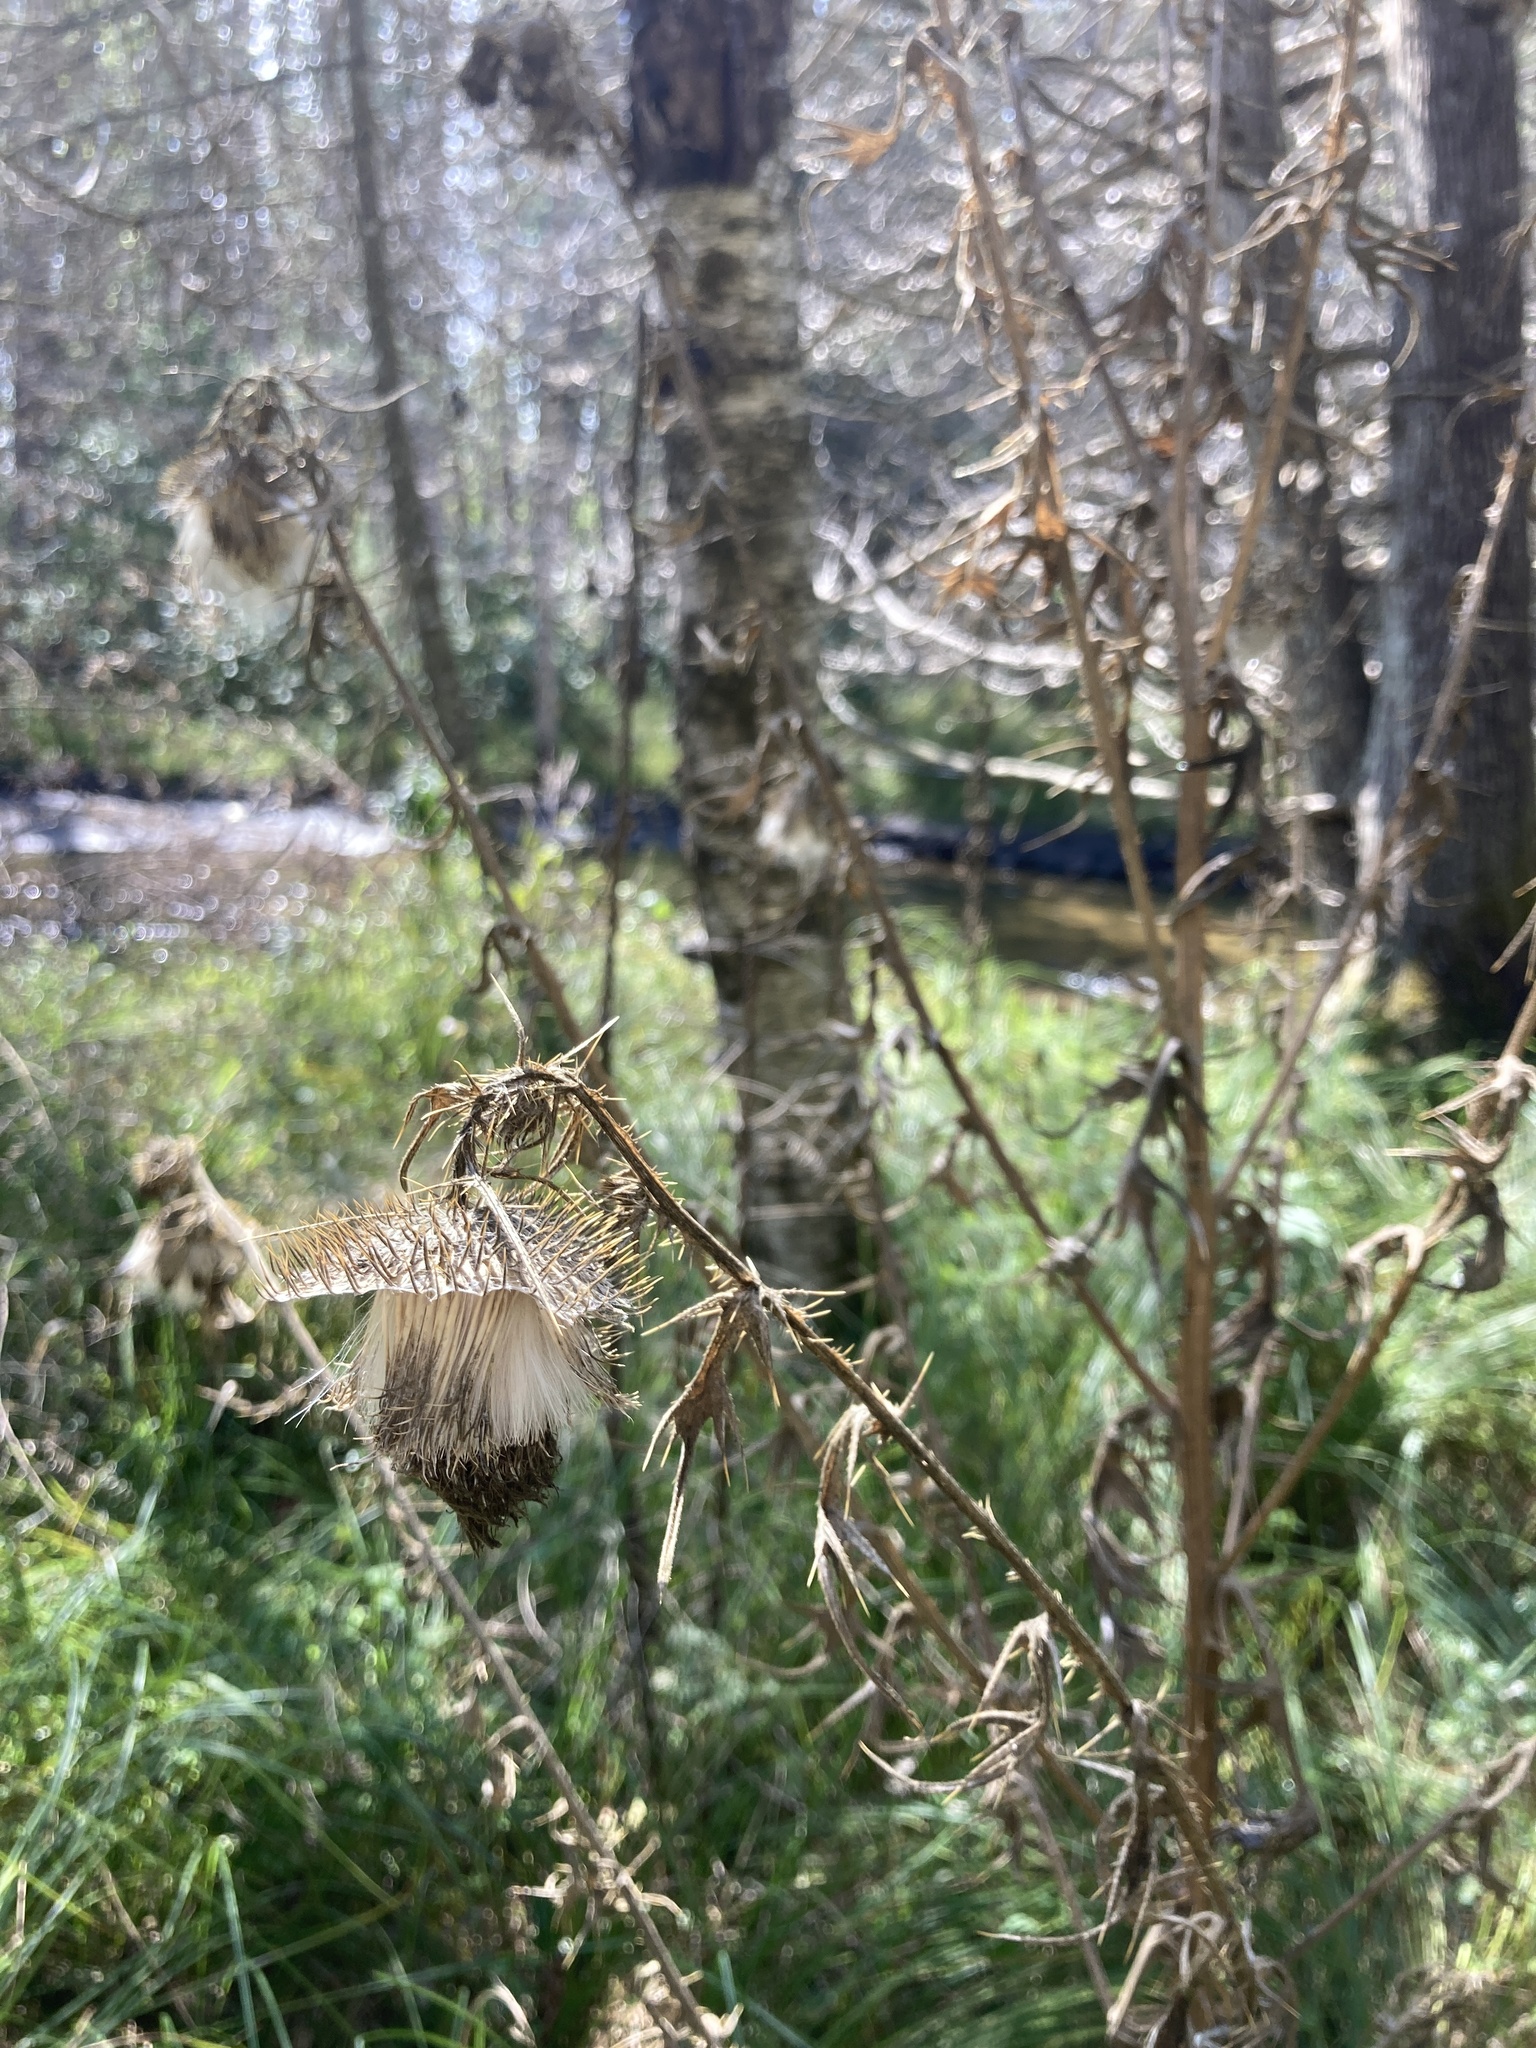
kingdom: Plantae
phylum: Tracheophyta
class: Magnoliopsida
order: Asterales
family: Asteraceae
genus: Cirsium
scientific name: Cirsium vulgare
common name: Bull thistle
